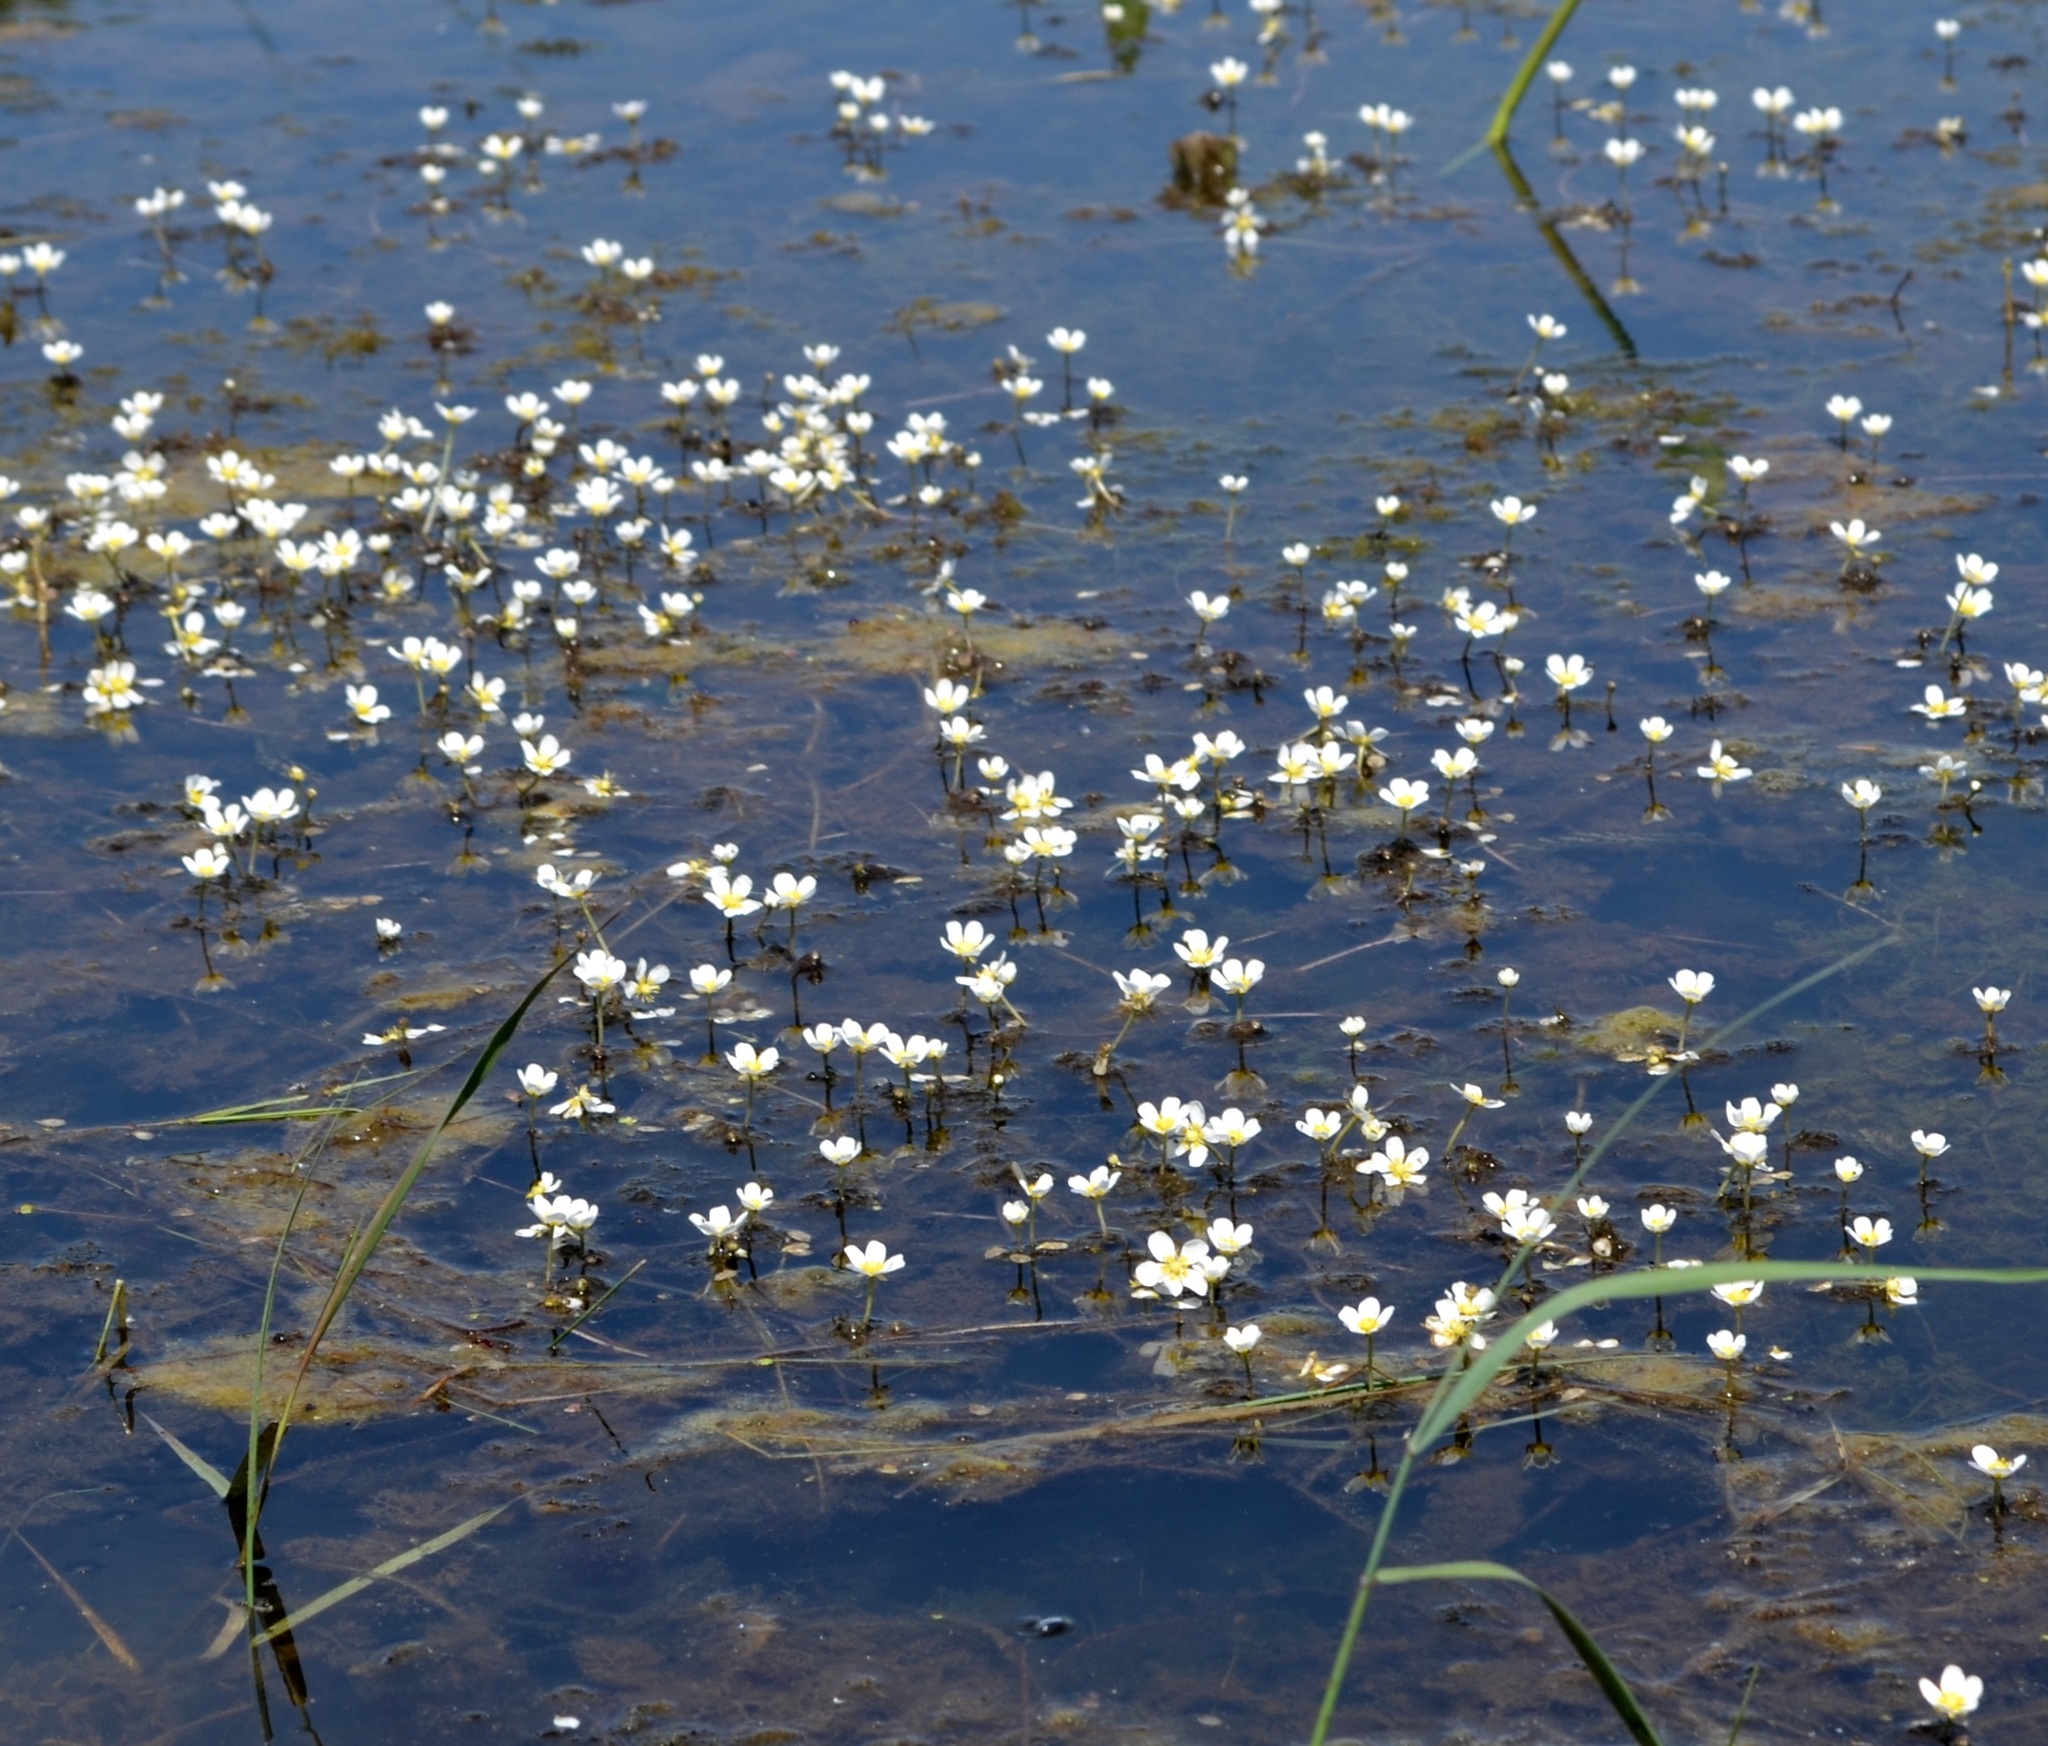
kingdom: Plantae
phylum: Tracheophyta
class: Magnoliopsida
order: Ranunculales
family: Ranunculaceae
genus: Ranunculus
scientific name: Ranunculus aquatilis
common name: Common water-crowfoot
